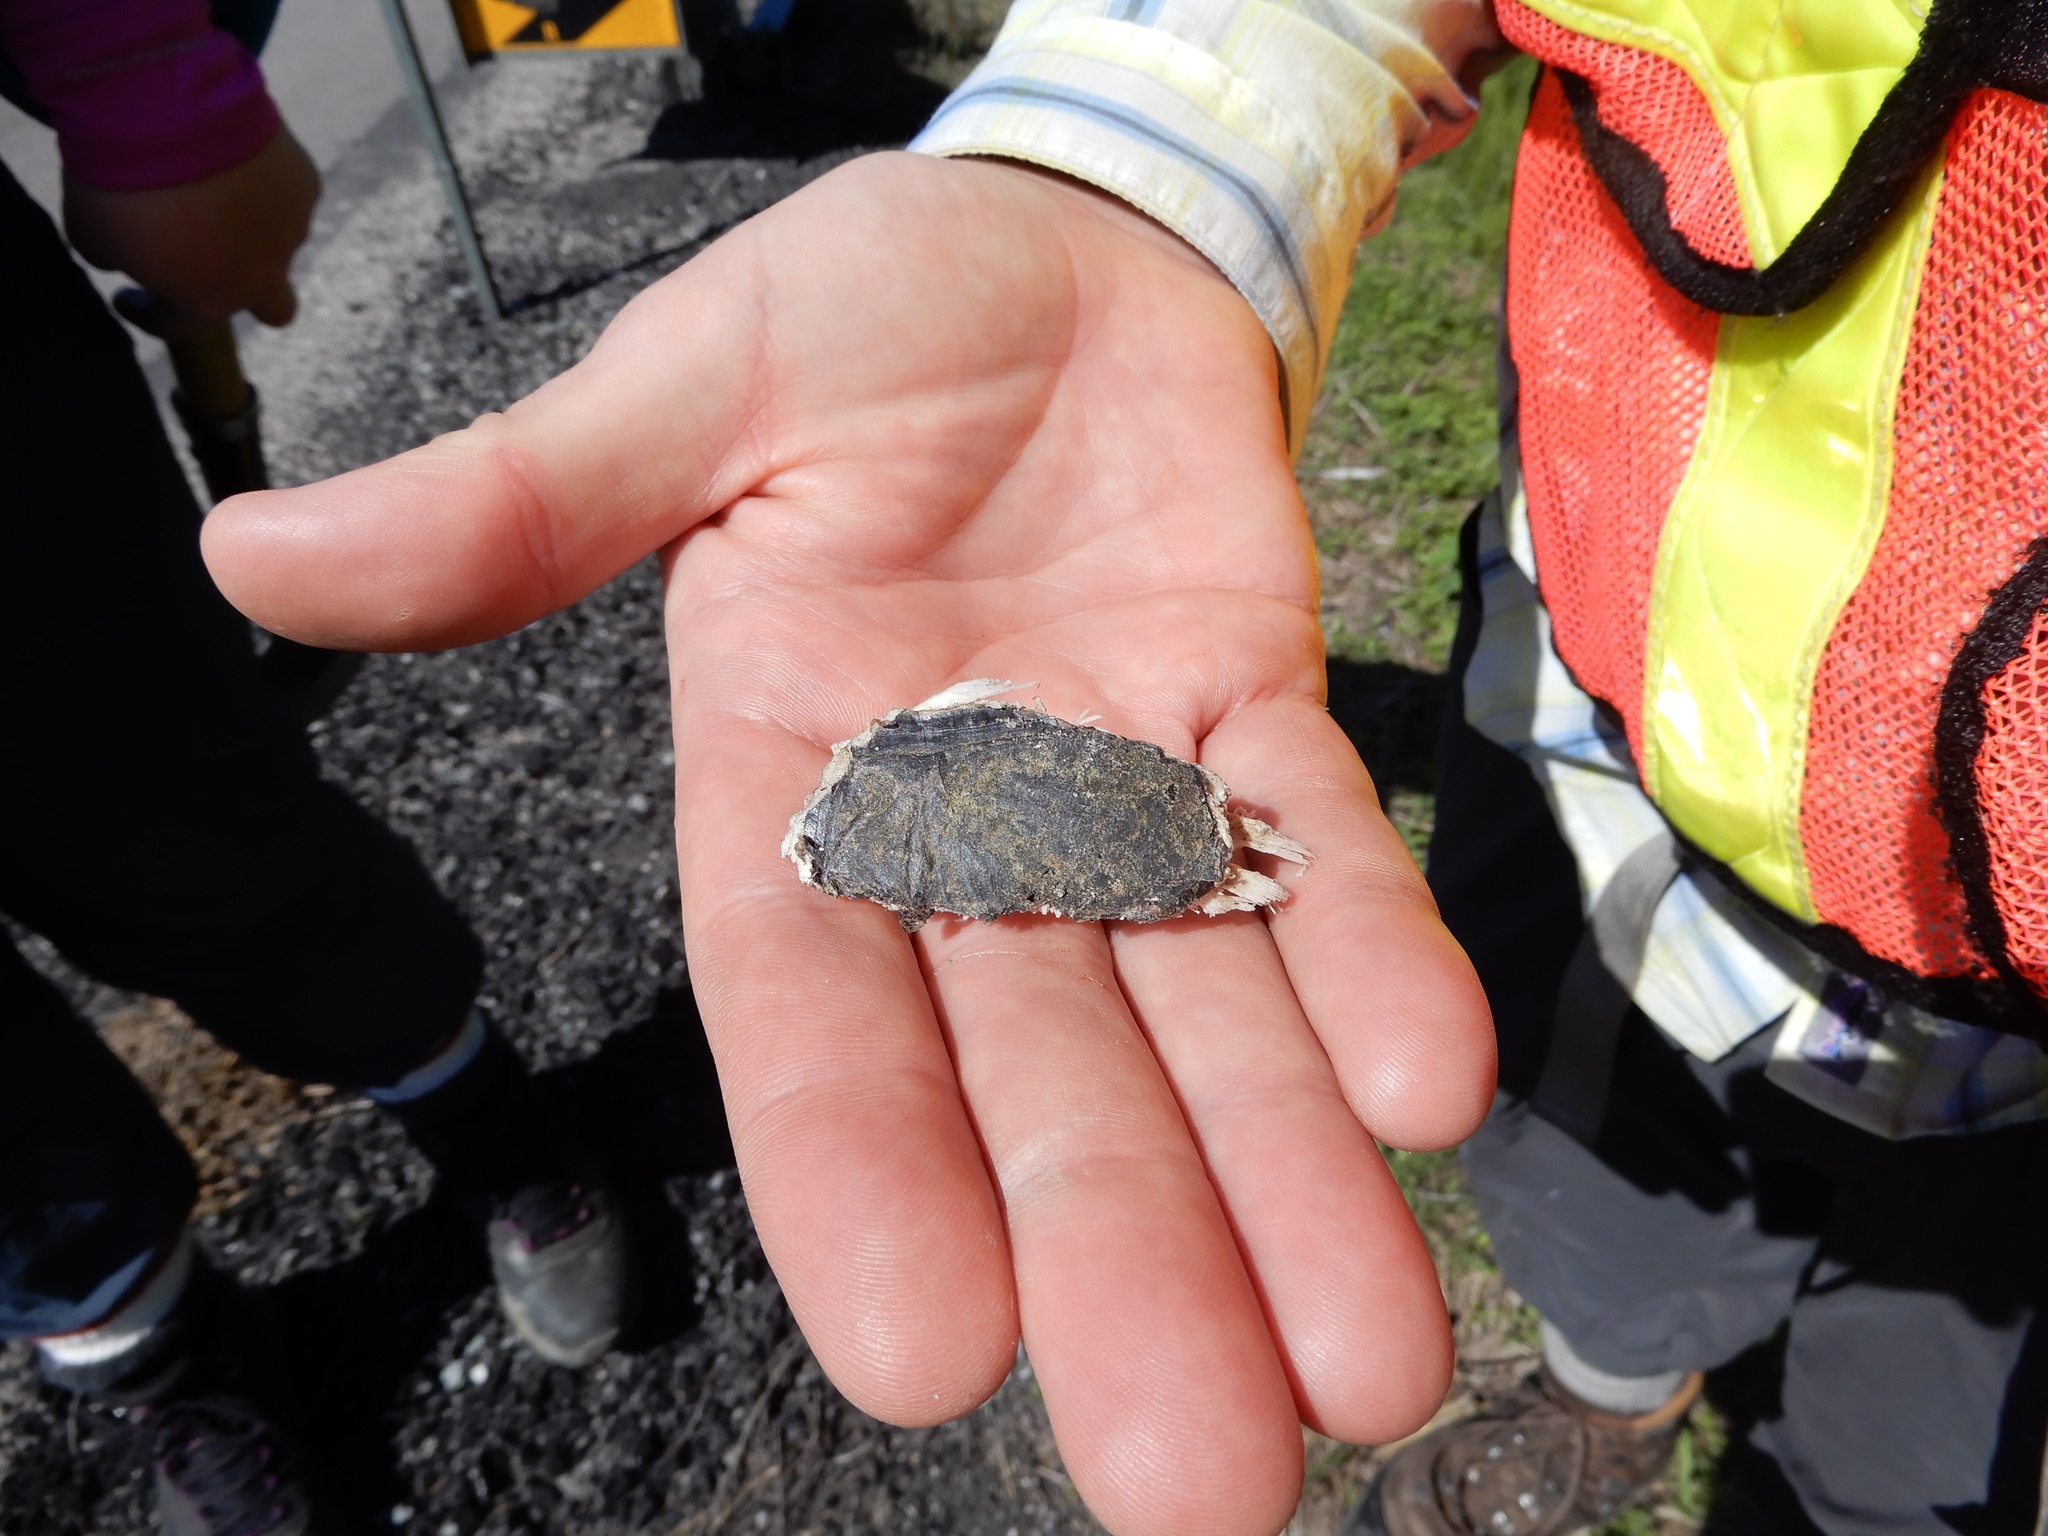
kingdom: Animalia
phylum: Chordata
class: Testudines
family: Chelydridae
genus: Chelydra
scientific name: Chelydra serpentina
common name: Common snapping turtle
